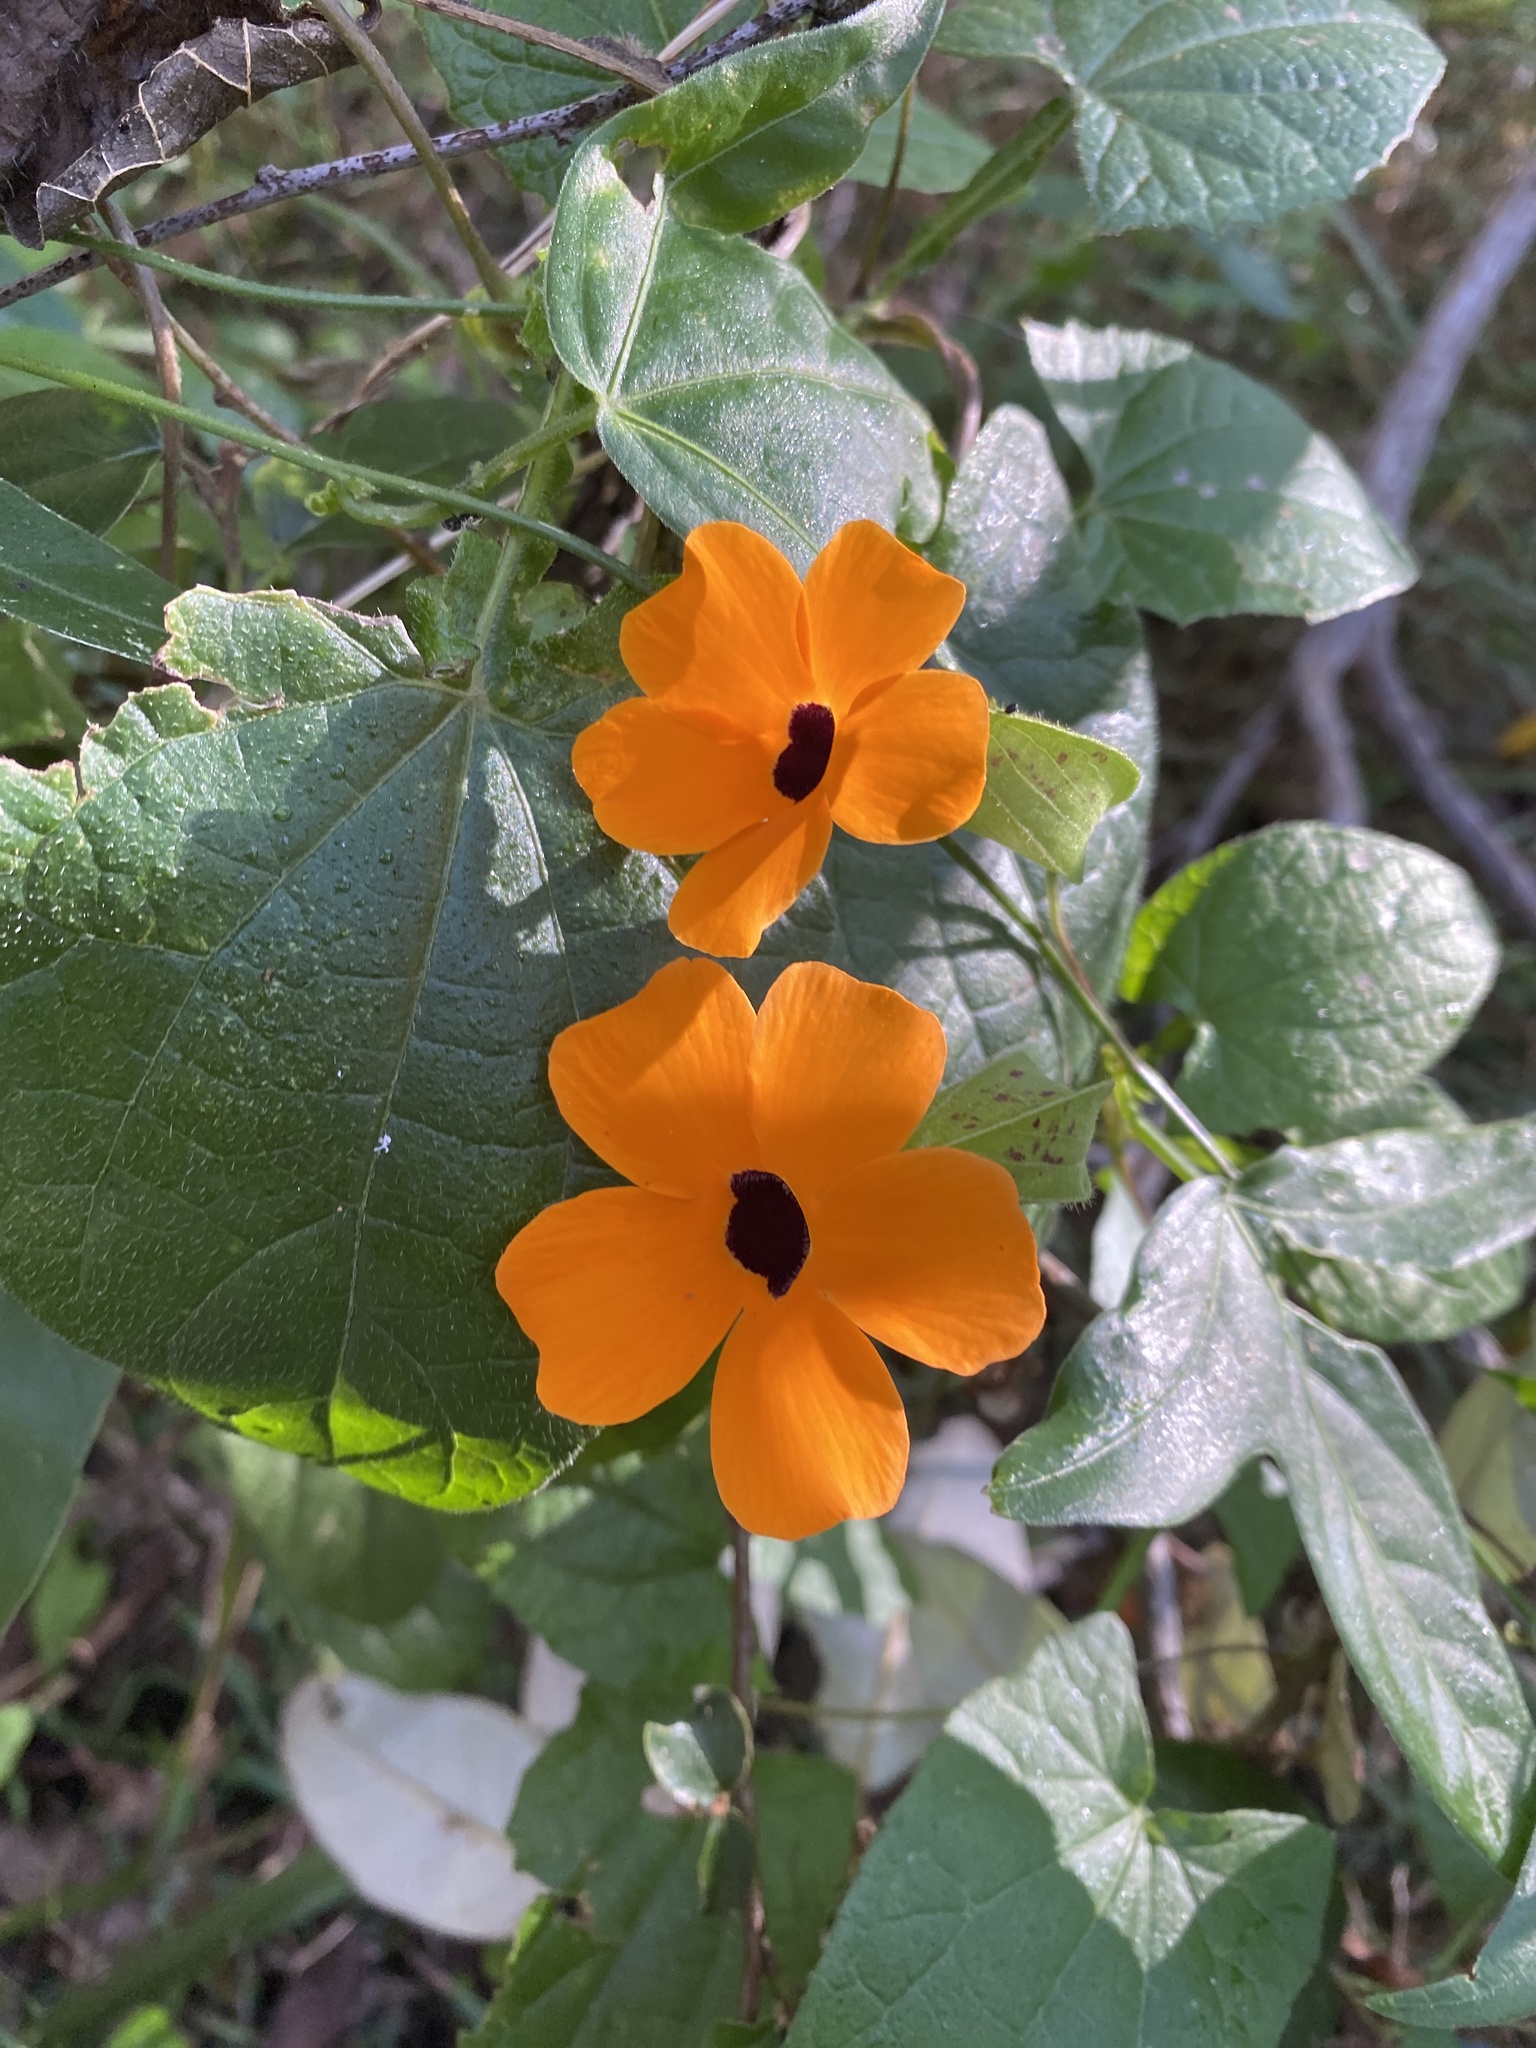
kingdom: Plantae
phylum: Tracheophyta
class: Magnoliopsida
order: Lamiales
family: Acanthaceae
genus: Thunbergia
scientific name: Thunbergia alata
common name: Blackeyed susan vine
